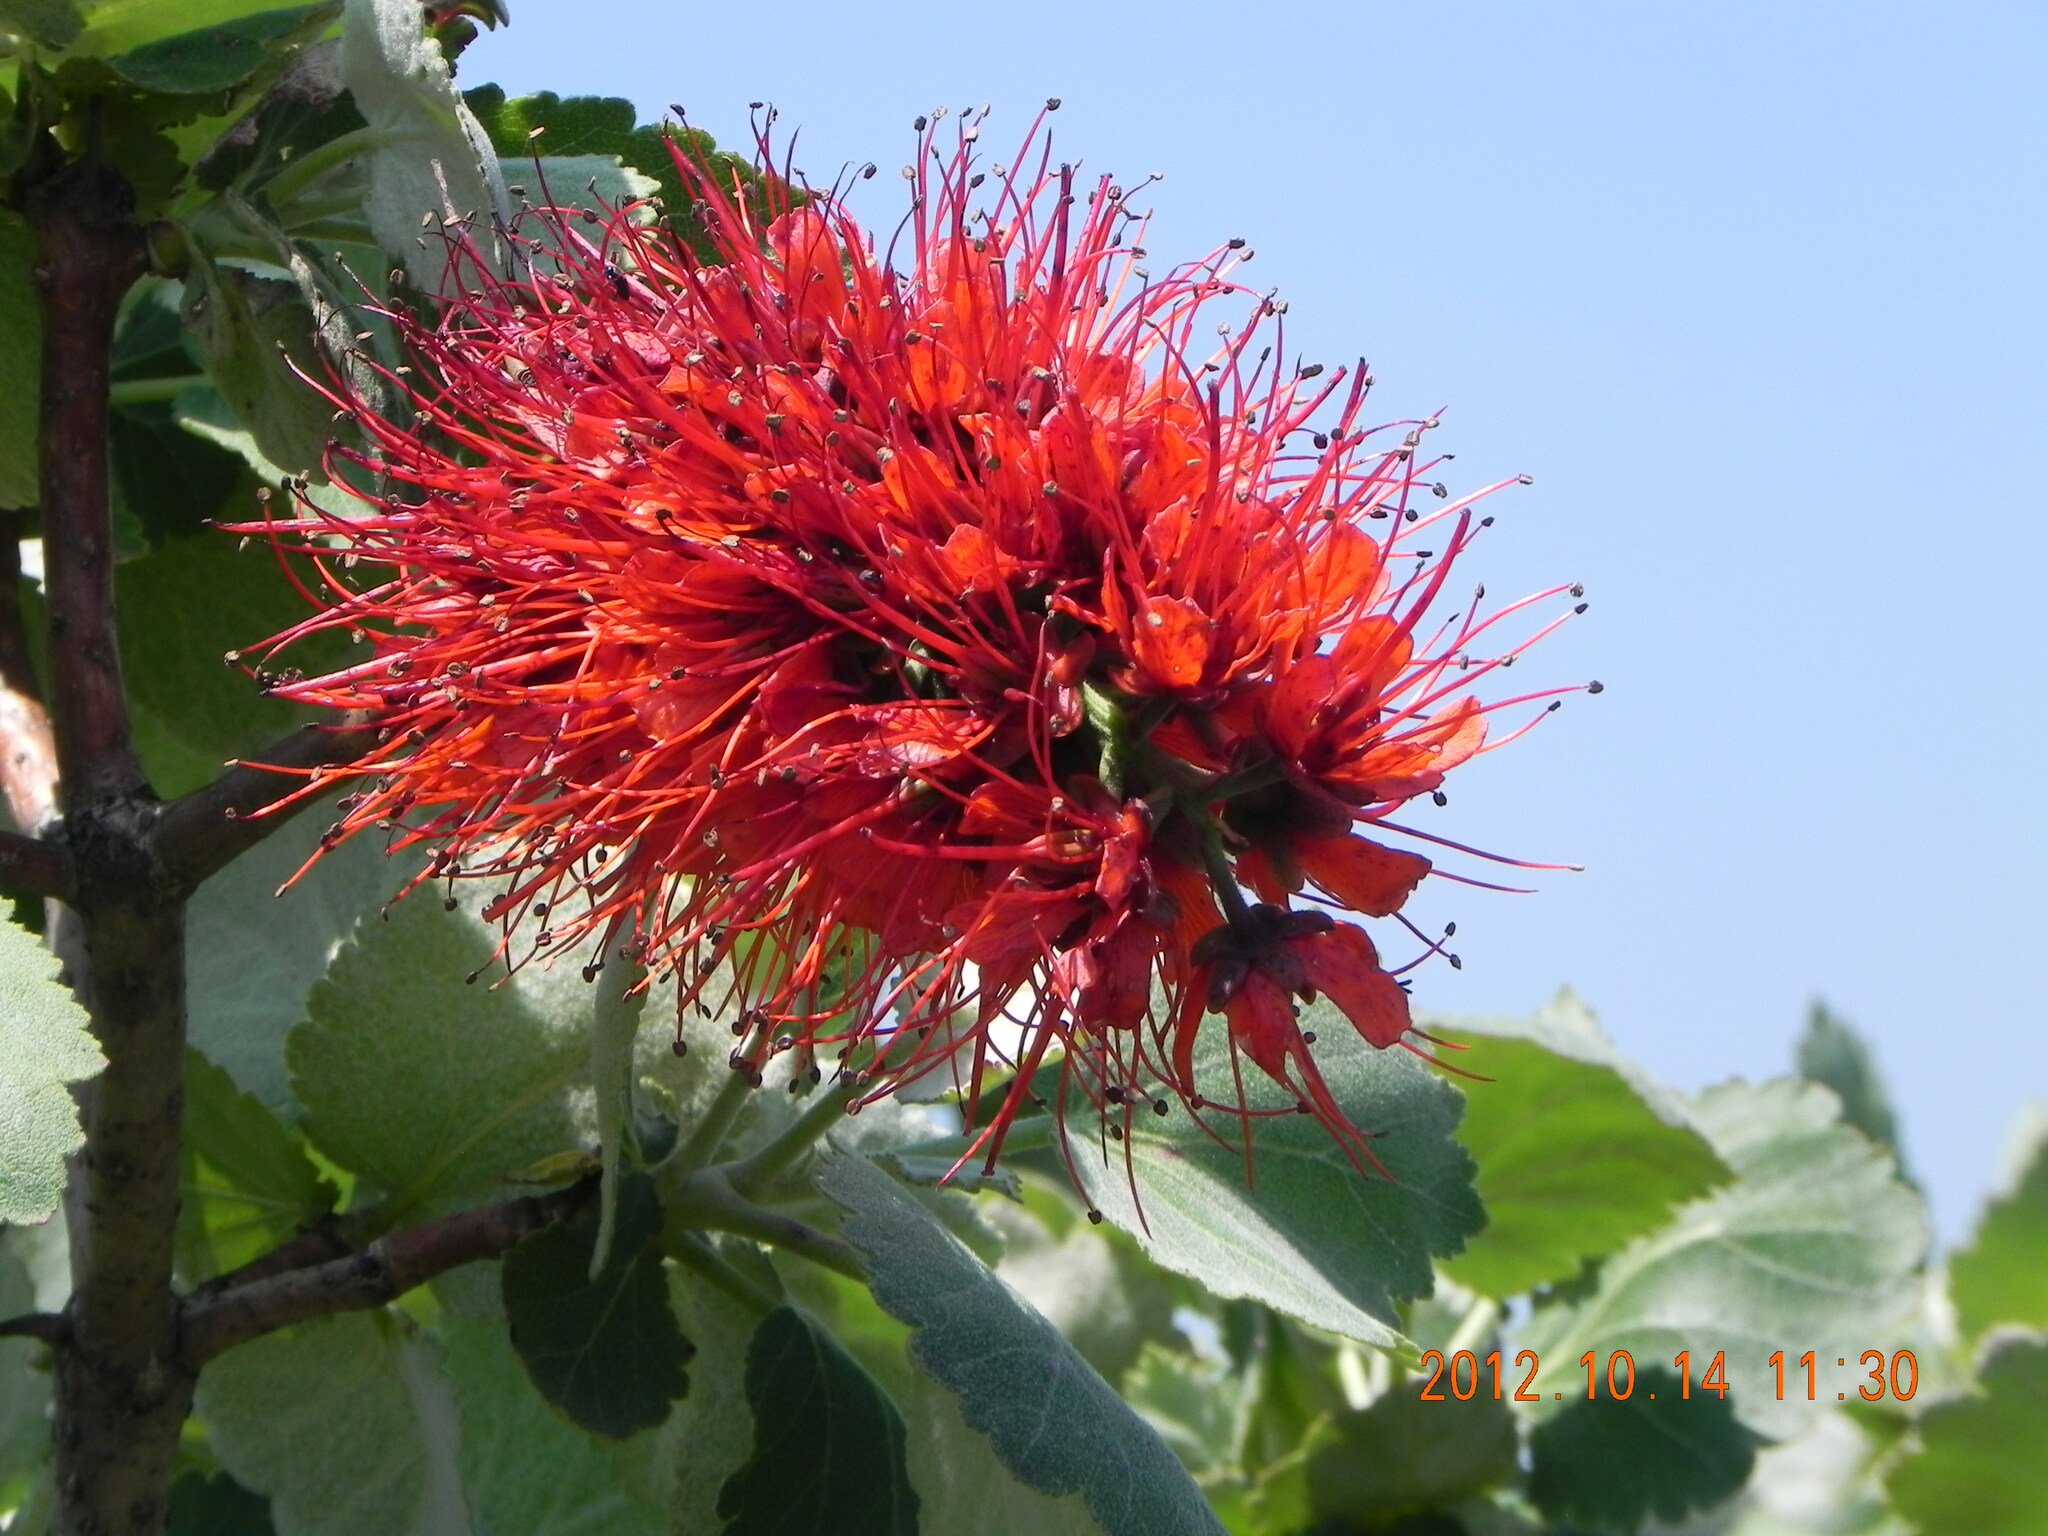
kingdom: Plantae
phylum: Tracheophyta
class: Magnoliopsida
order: Geraniales
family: Francoaceae
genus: Greyia
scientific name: Greyia sutherlandii
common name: Glossy bottlebrush
